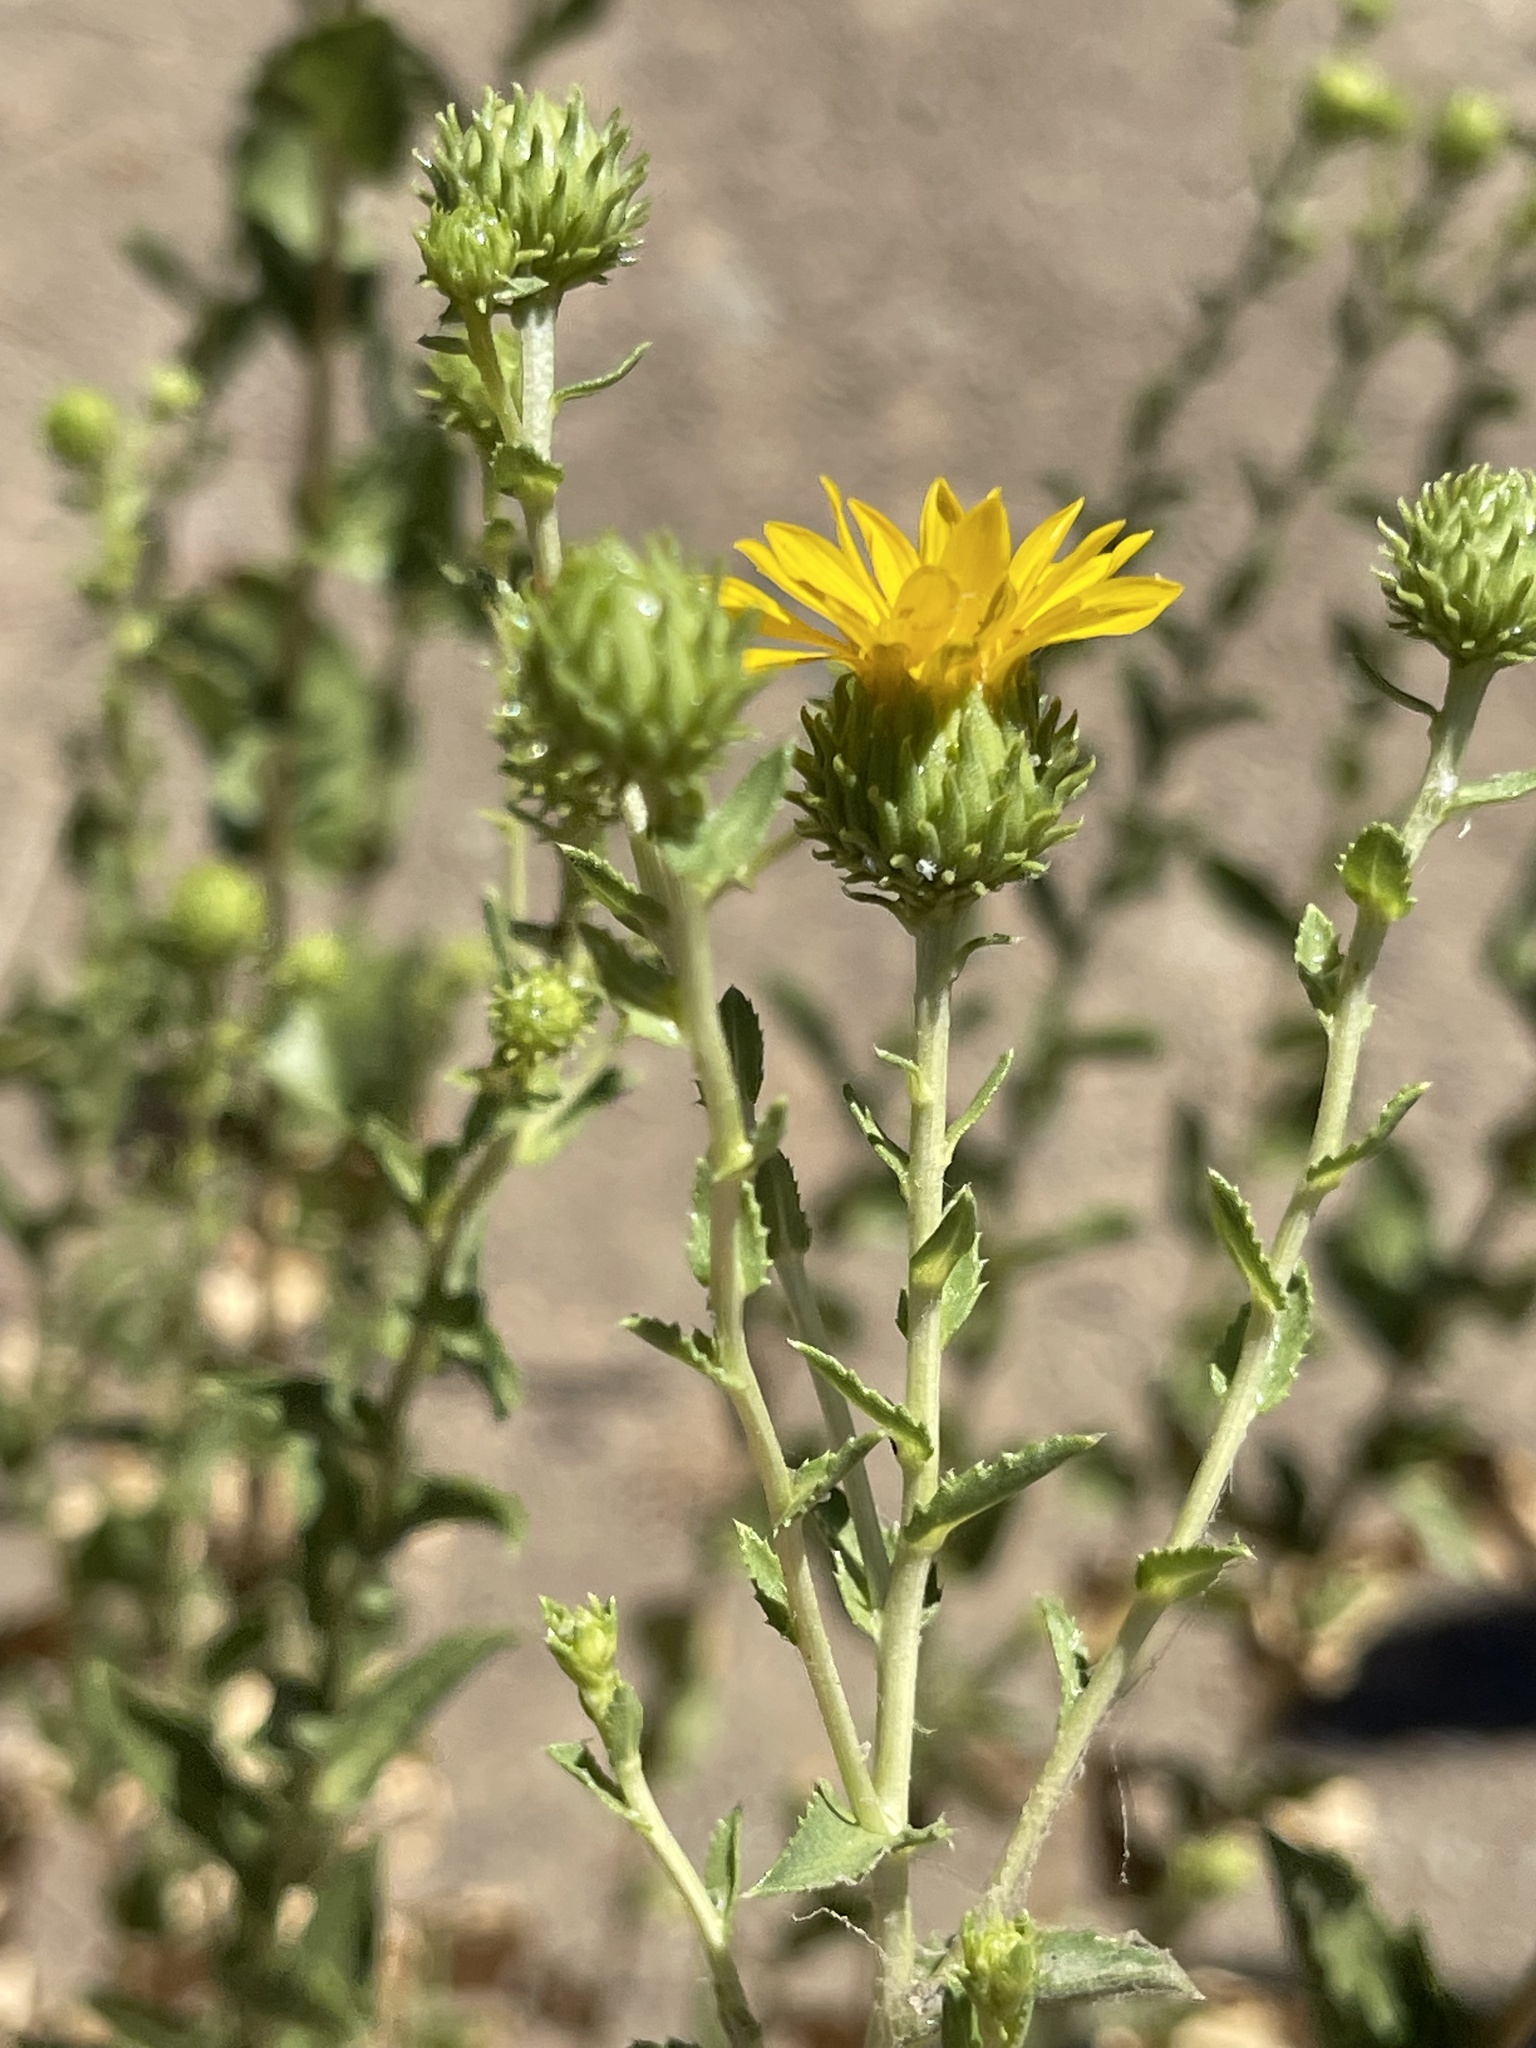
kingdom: Plantae
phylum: Tracheophyta
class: Magnoliopsida
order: Asterales
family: Asteraceae
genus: Grindelia
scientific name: Grindelia hirsutula
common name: Hairy gumweed
